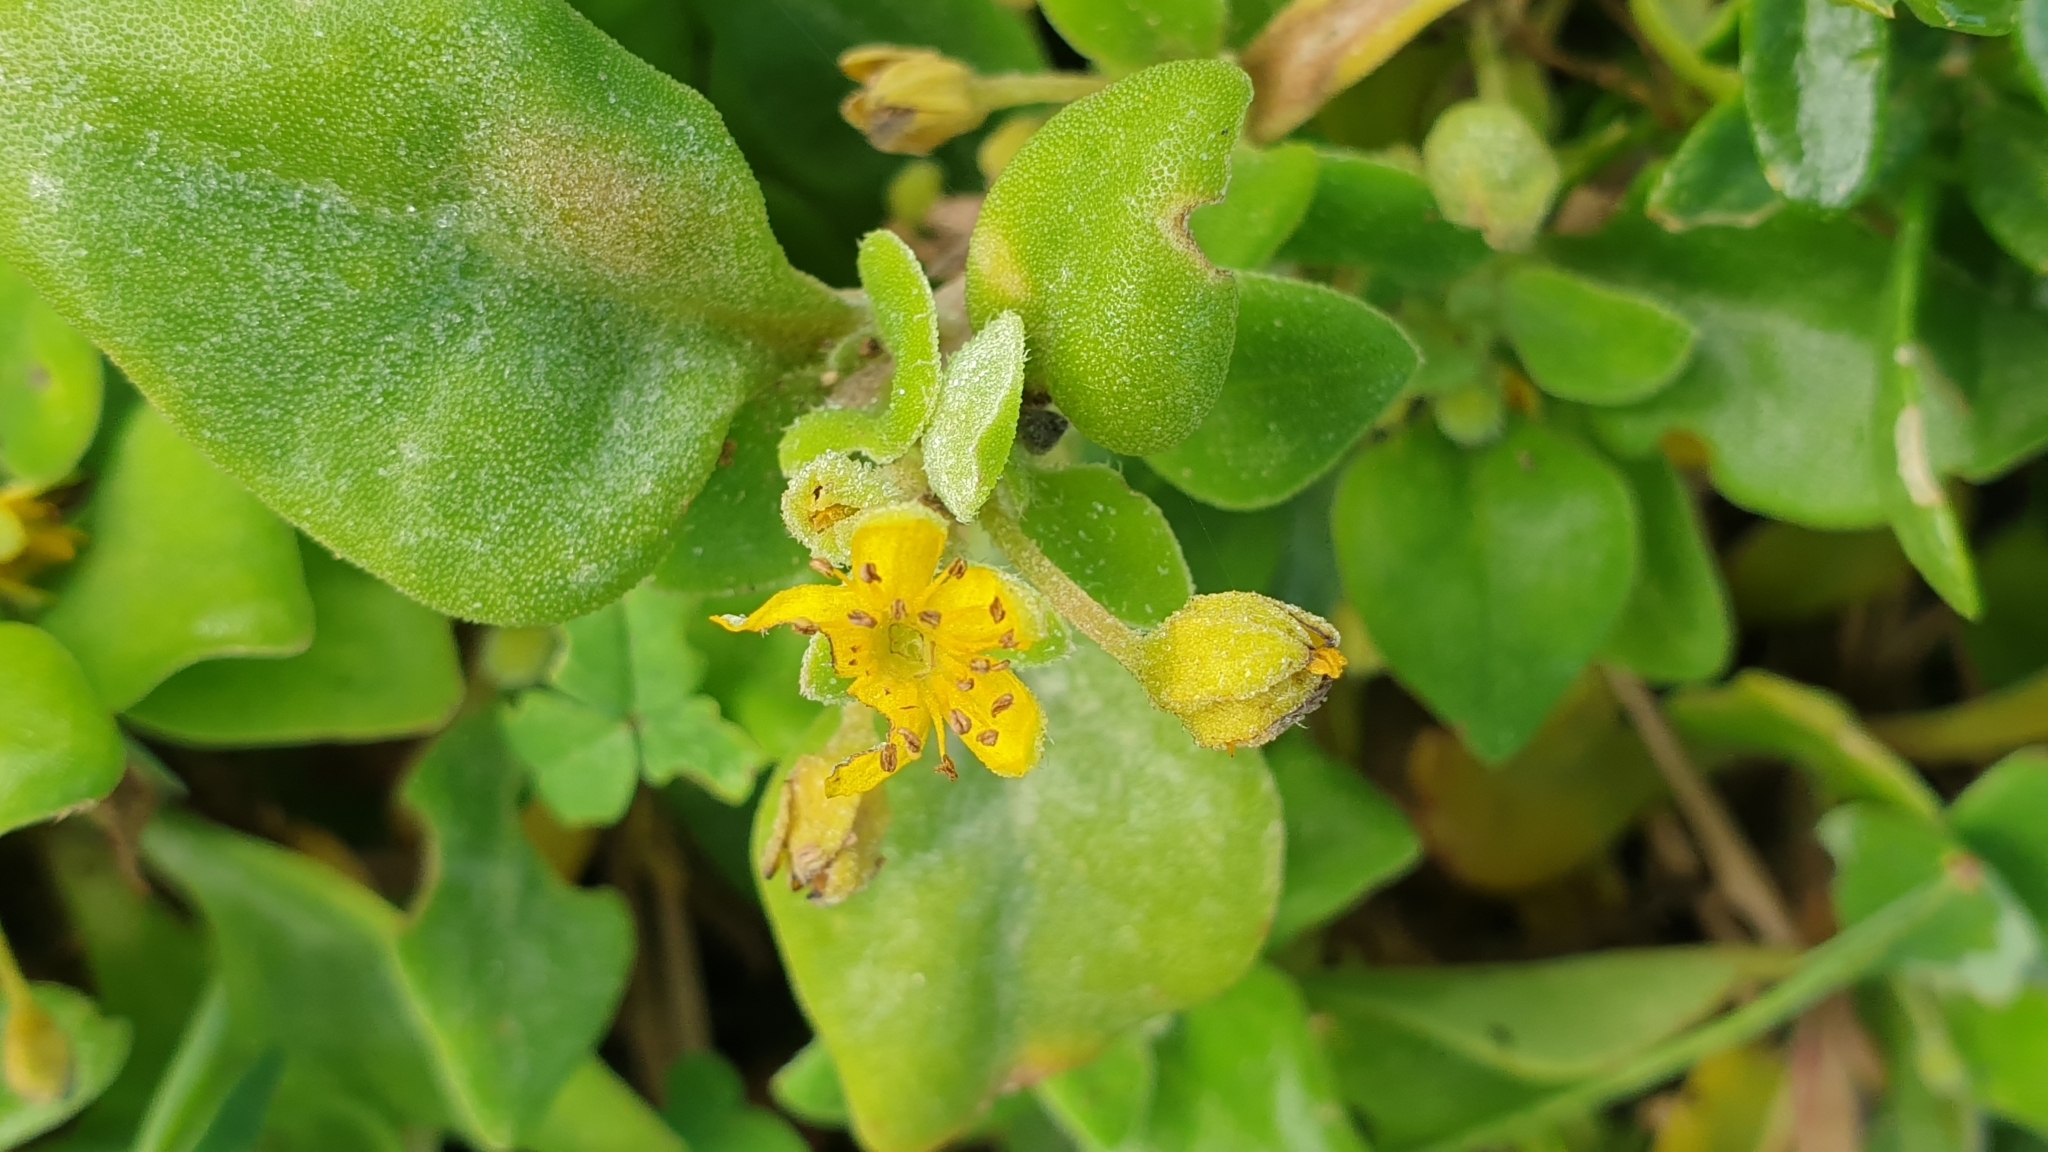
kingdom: Plantae
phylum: Tracheophyta
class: Magnoliopsida
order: Caryophyllales
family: Aizoaceae
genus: Tetragonia
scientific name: Tetragonia implexicoma
